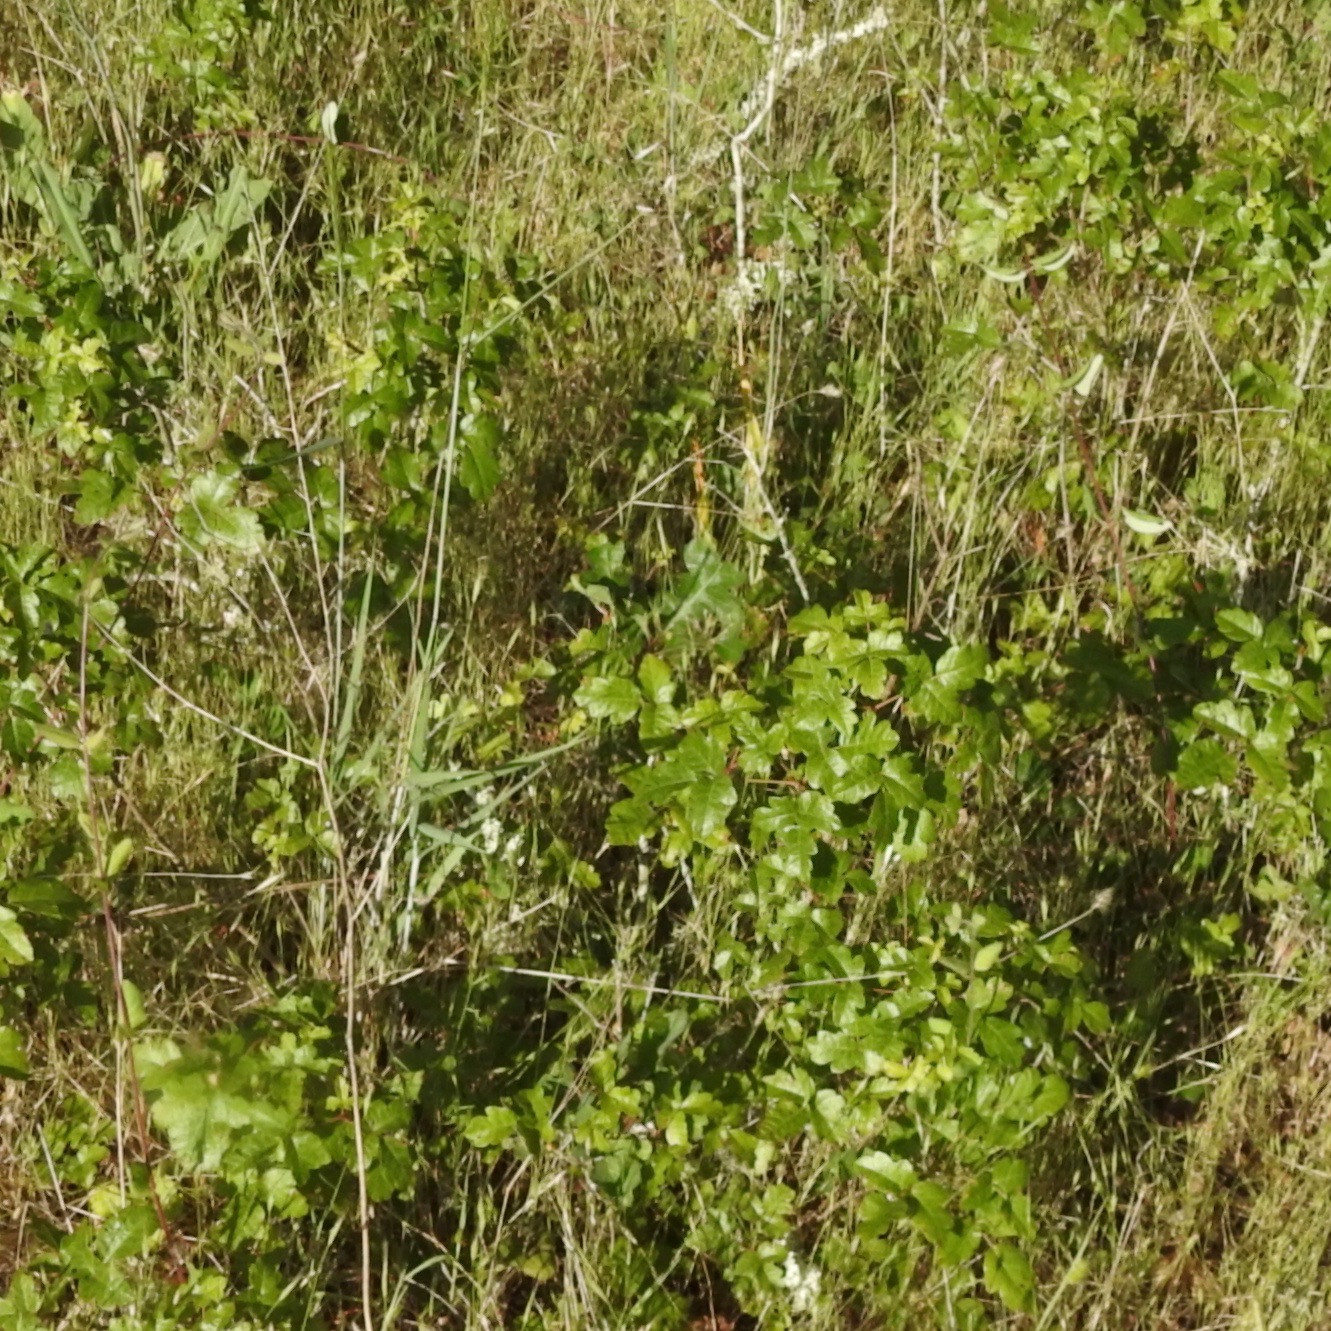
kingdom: Plantae
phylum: Tracheophyta
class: Magnoliopsida
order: Sapindales
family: Anacardiaceae
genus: Toxicodendron
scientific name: Toxicodendron diversilobum
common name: Pacific poison-oak
